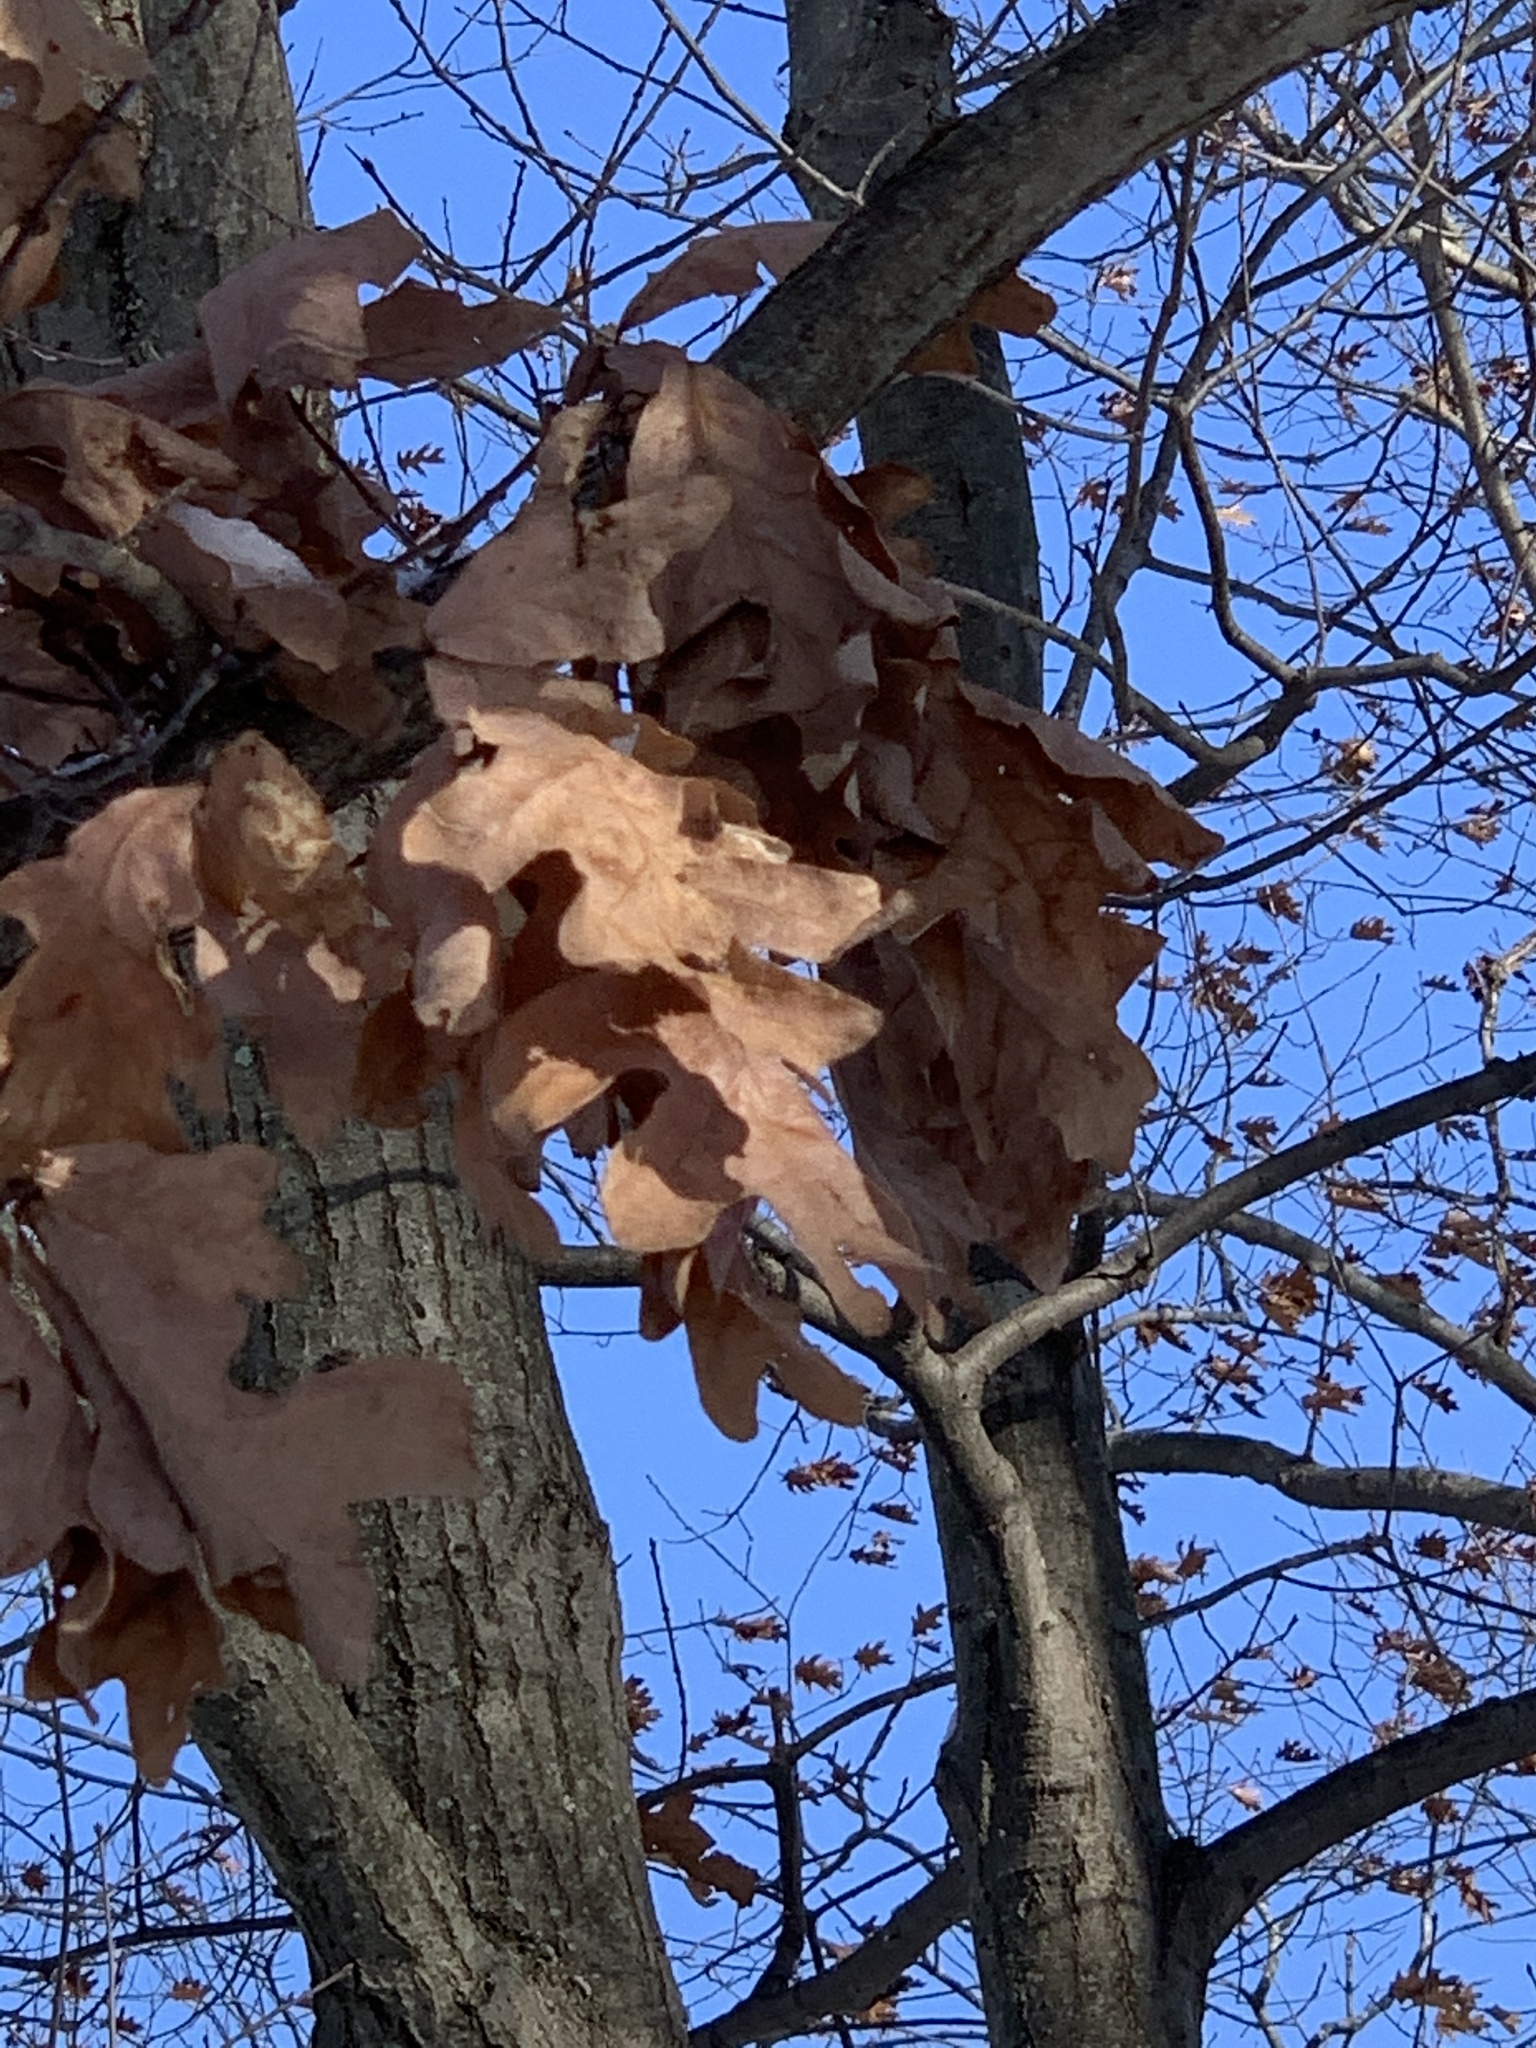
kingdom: Plantae
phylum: Tracheophyta
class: Magnoliopsida
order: Fagales
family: Fagaceae
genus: Quercus
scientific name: Quercus alba
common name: White oak
